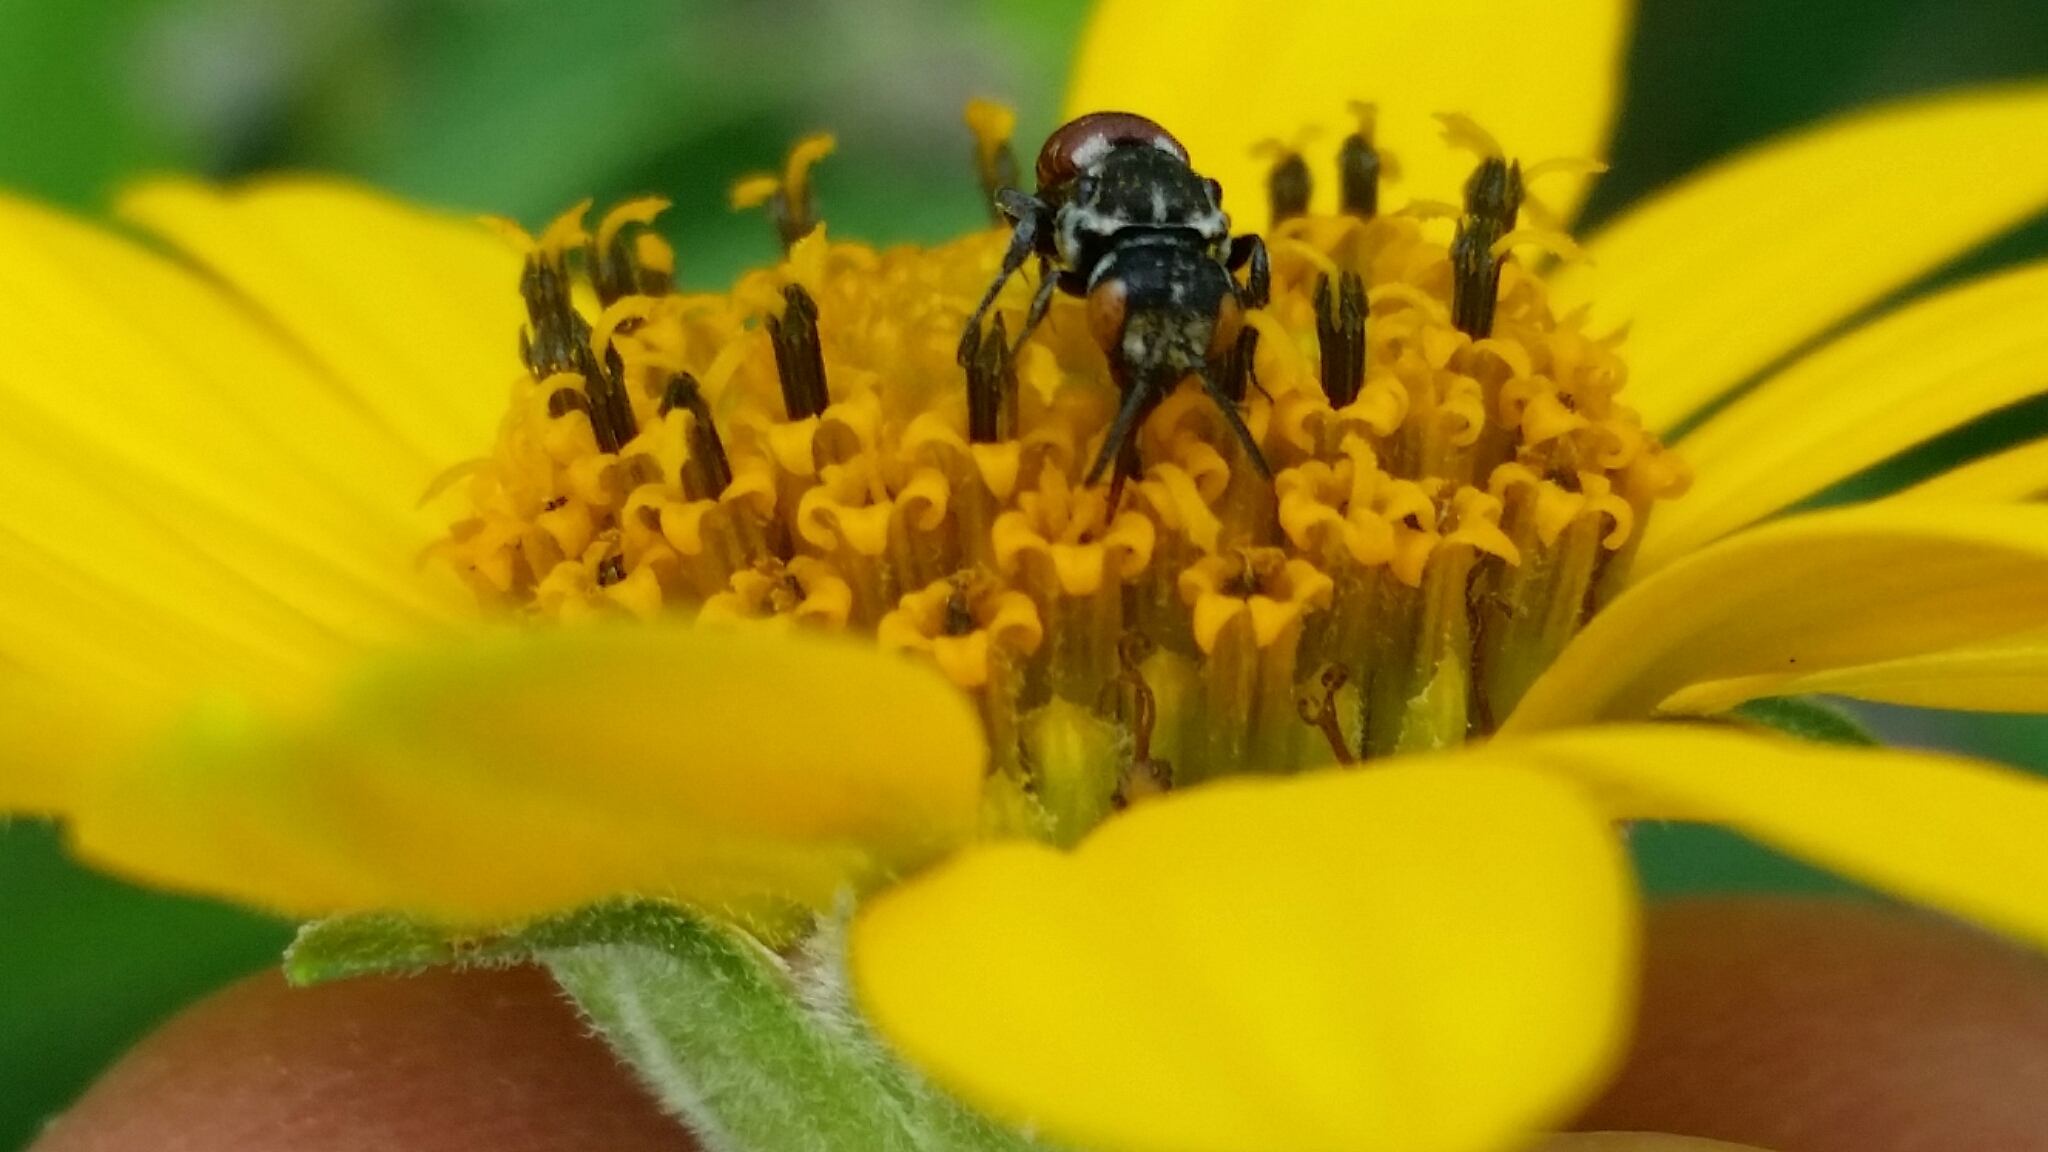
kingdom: Animalia
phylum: Arthropoda
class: Insecta
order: Hymenoptera
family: Apidae
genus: Holcopasites
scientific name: Holcopasites calliopsidis
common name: Calliopsis cuckoo nomad bee
